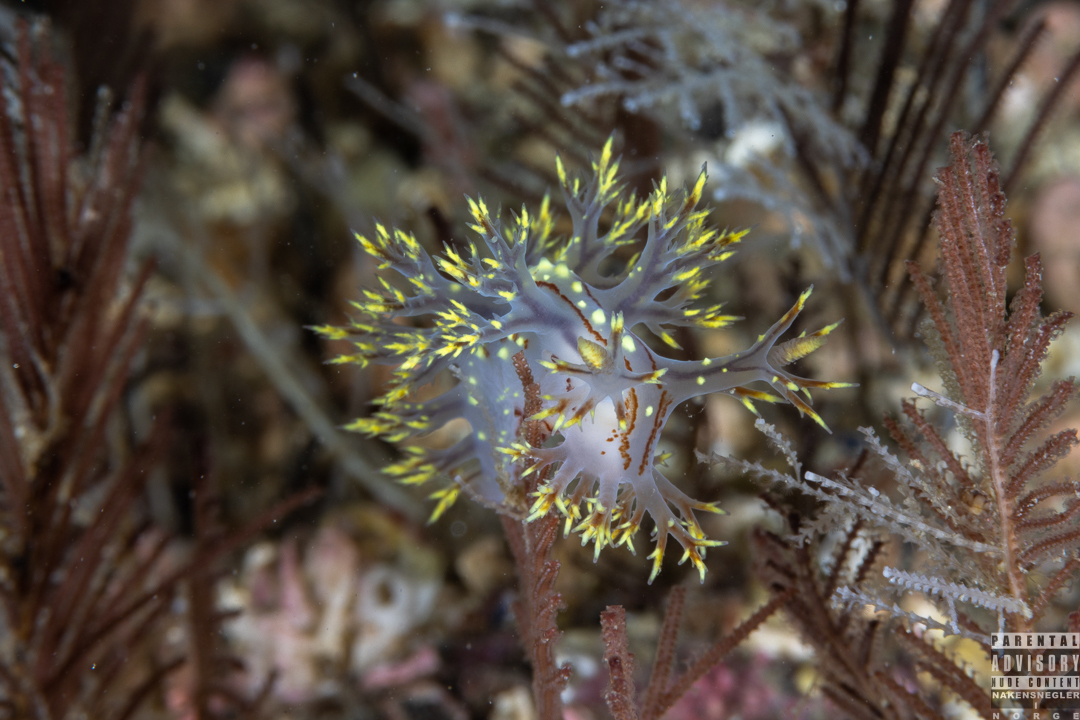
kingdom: Animalia
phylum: Mollusca
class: Gastropoda
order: Nudibranchia
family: Dendronotidae
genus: Dendronotus
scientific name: Dendronotus yrjargul
